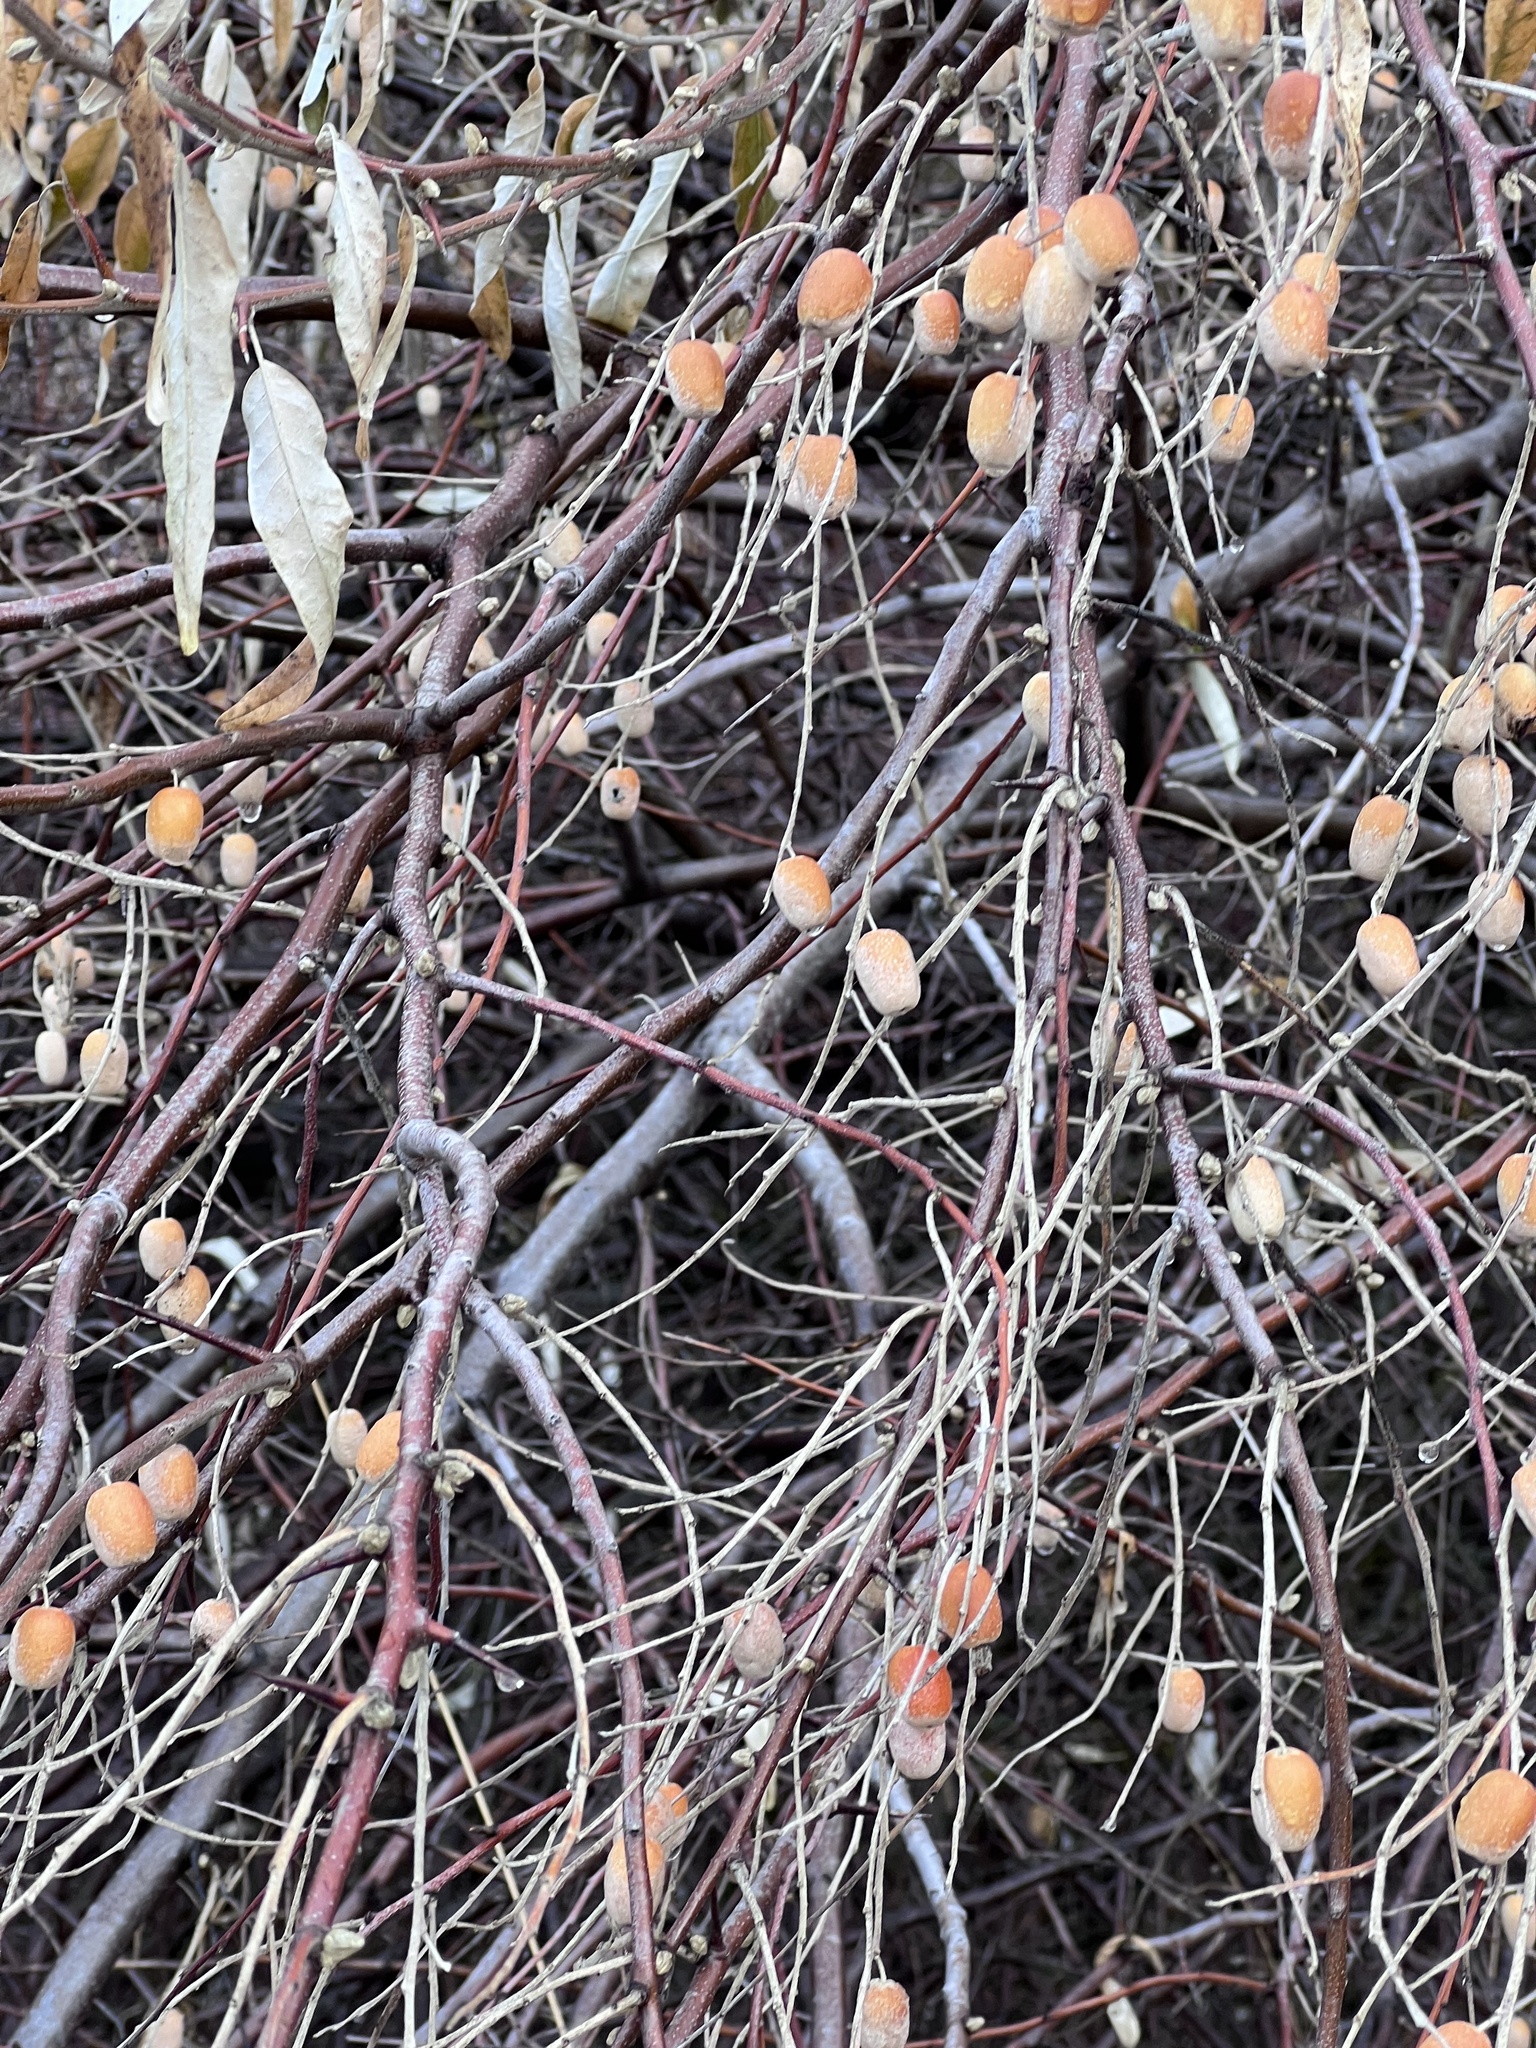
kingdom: Plantae
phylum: Tracheophyta
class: Magnoliopsida
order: Rosales
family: Elaeagnaceae
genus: Elaeagnus
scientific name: Elaeagnus angustifolia
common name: Russian olive
